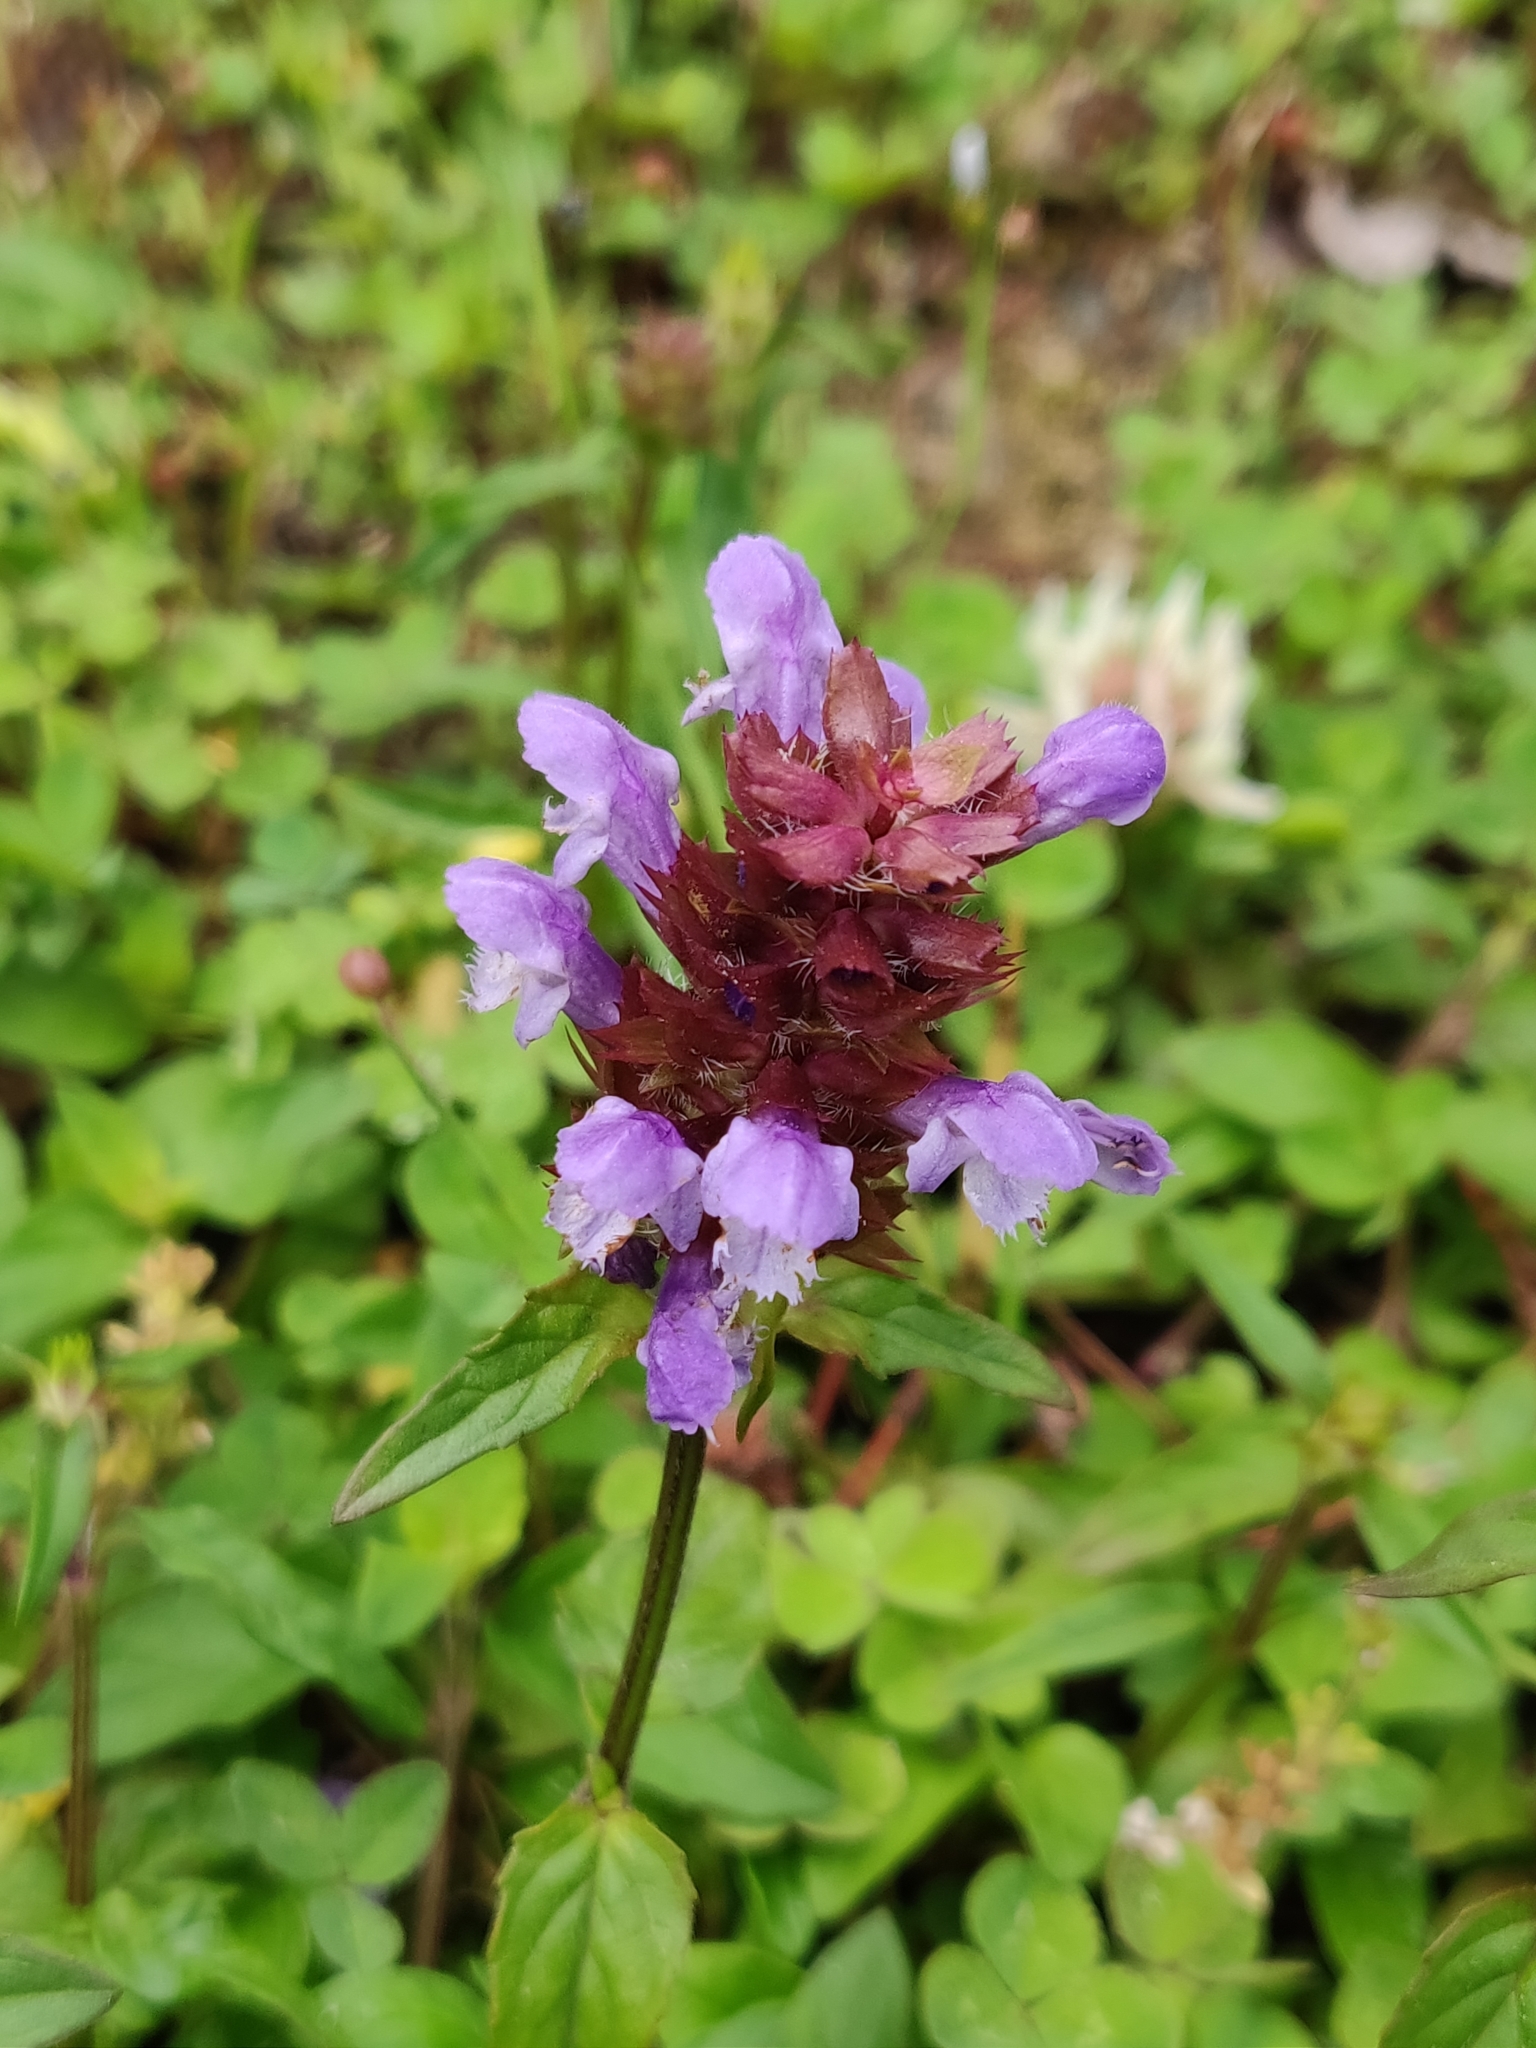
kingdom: Plantae
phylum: Tracheophyta
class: Magnoliopsida
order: Lamiales
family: Lamiaceae
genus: Prunella
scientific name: Prunella vulgaris
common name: Heal-all
